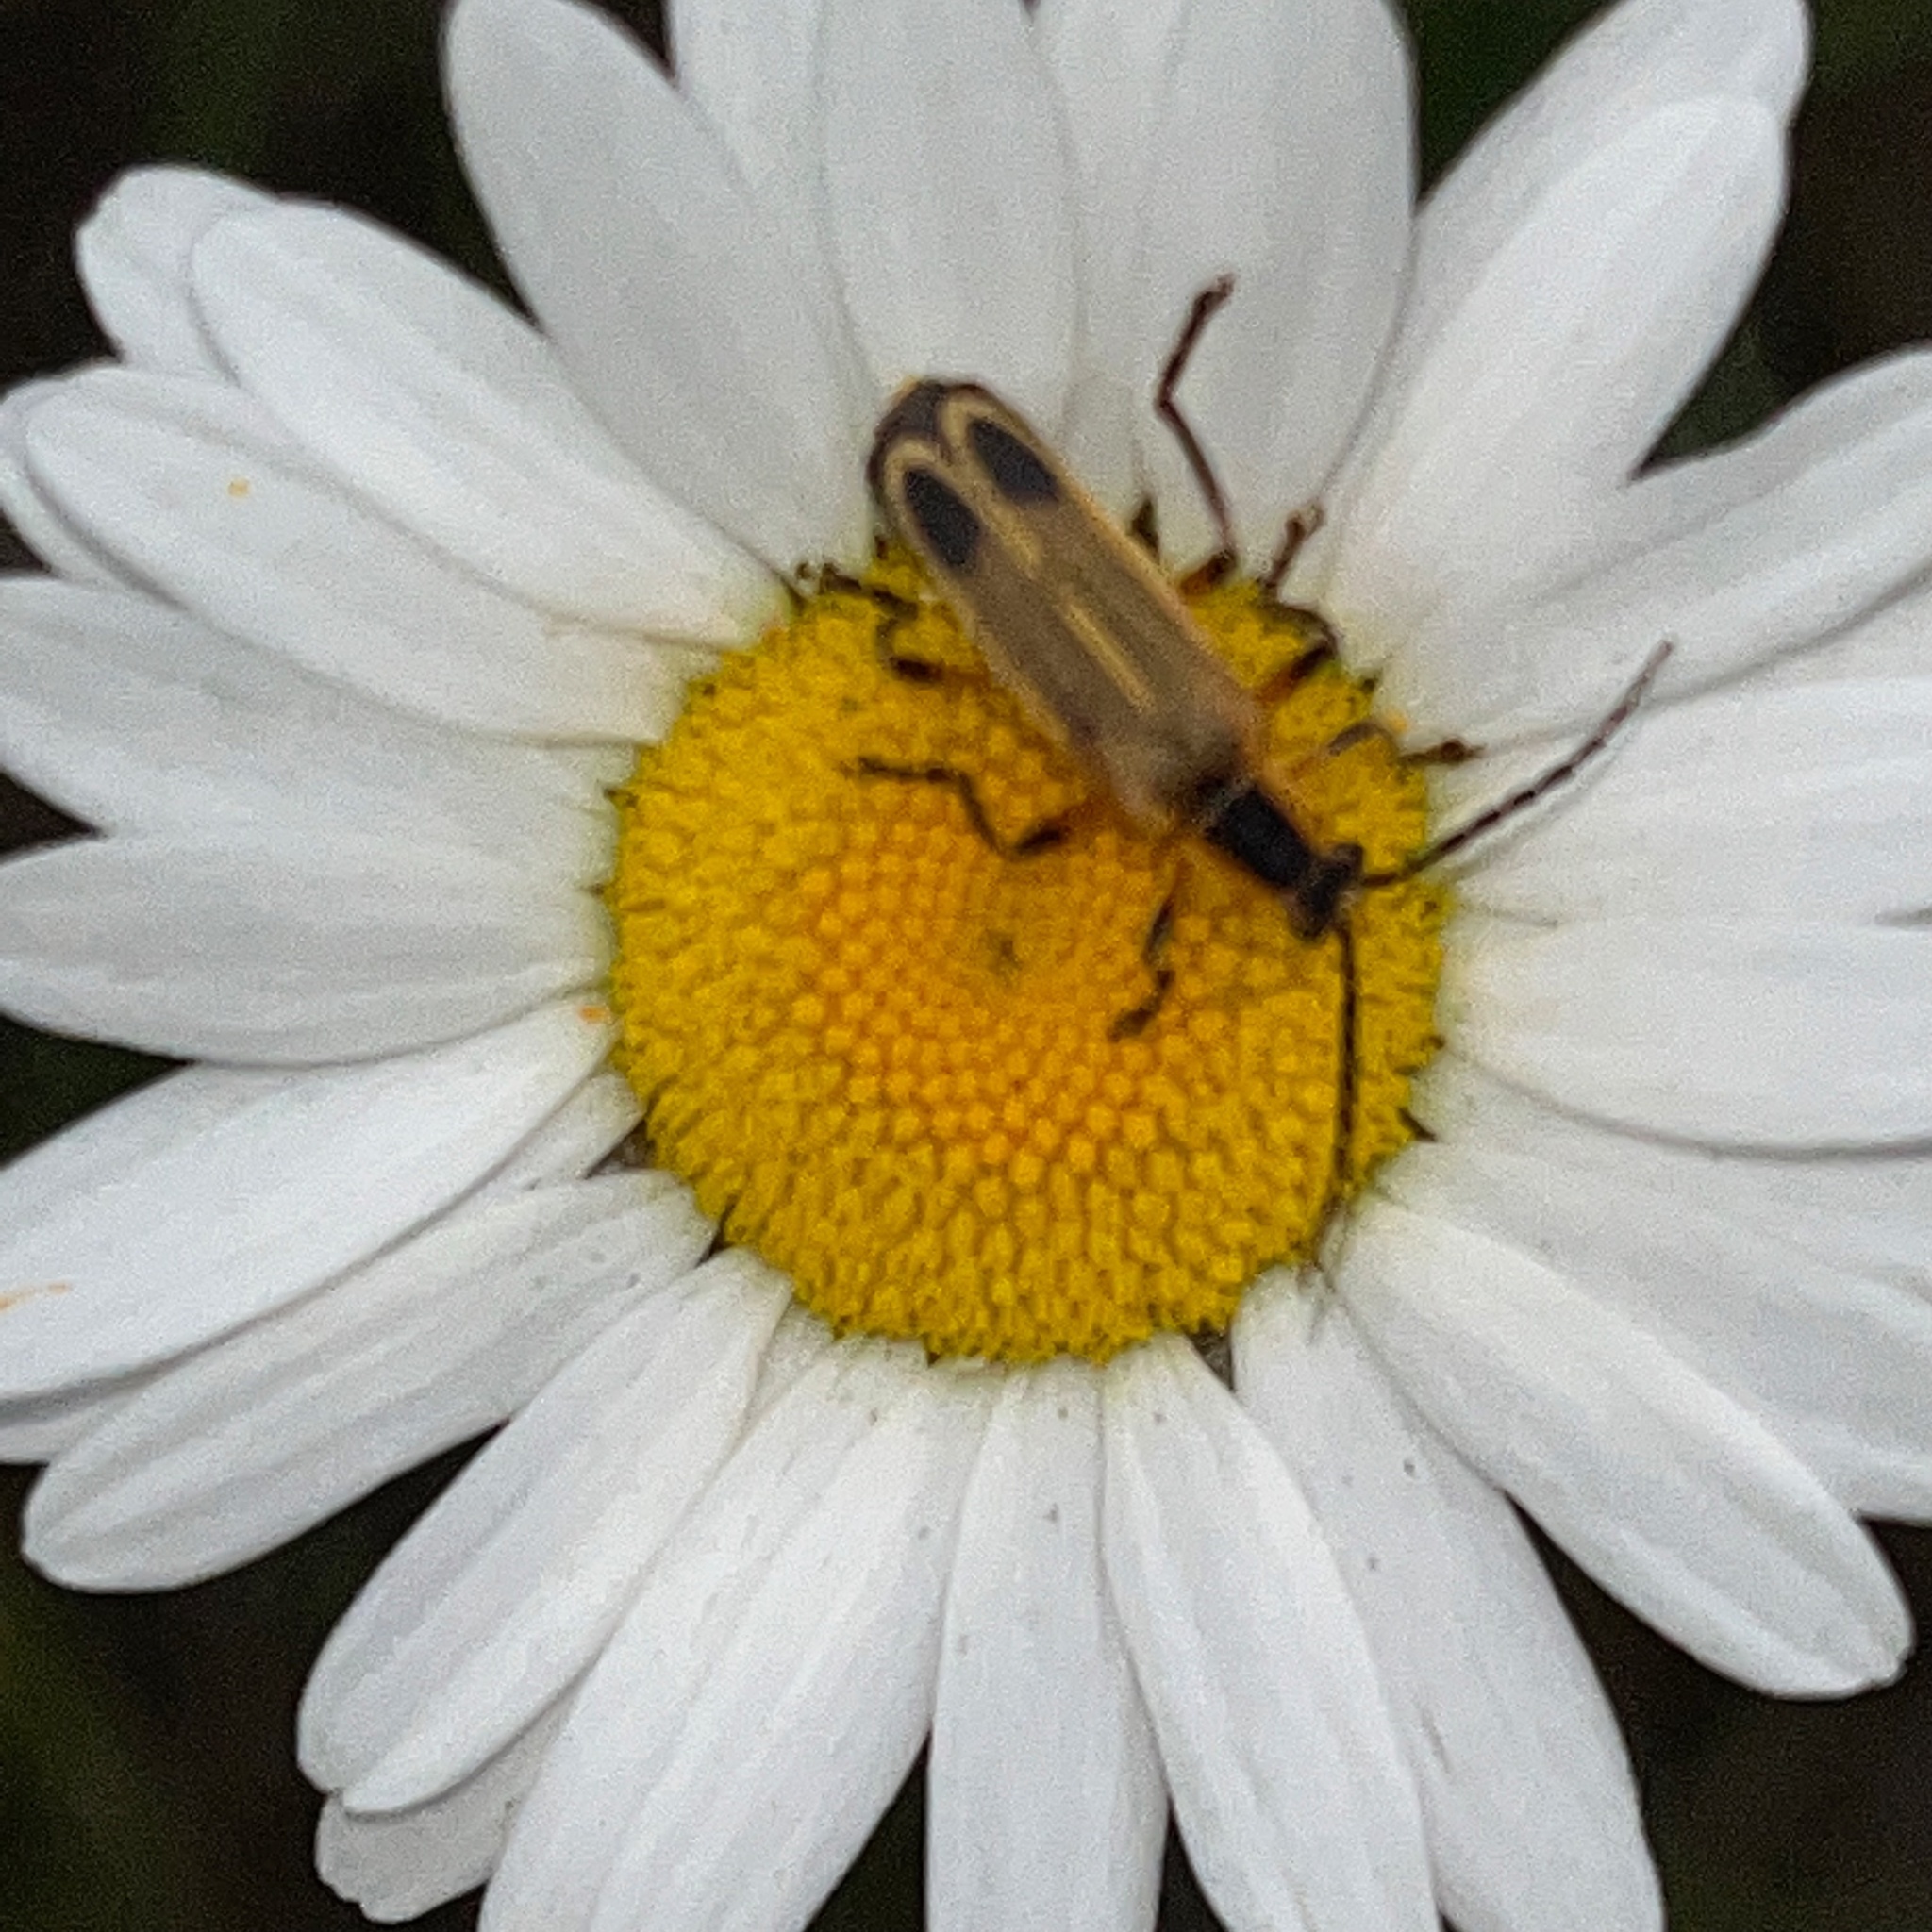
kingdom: Animalia
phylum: Arthropoda
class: Insecta
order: Coleoptera
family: Cantharidae
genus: Chauliognathus
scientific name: Chauliognathus marginatus
